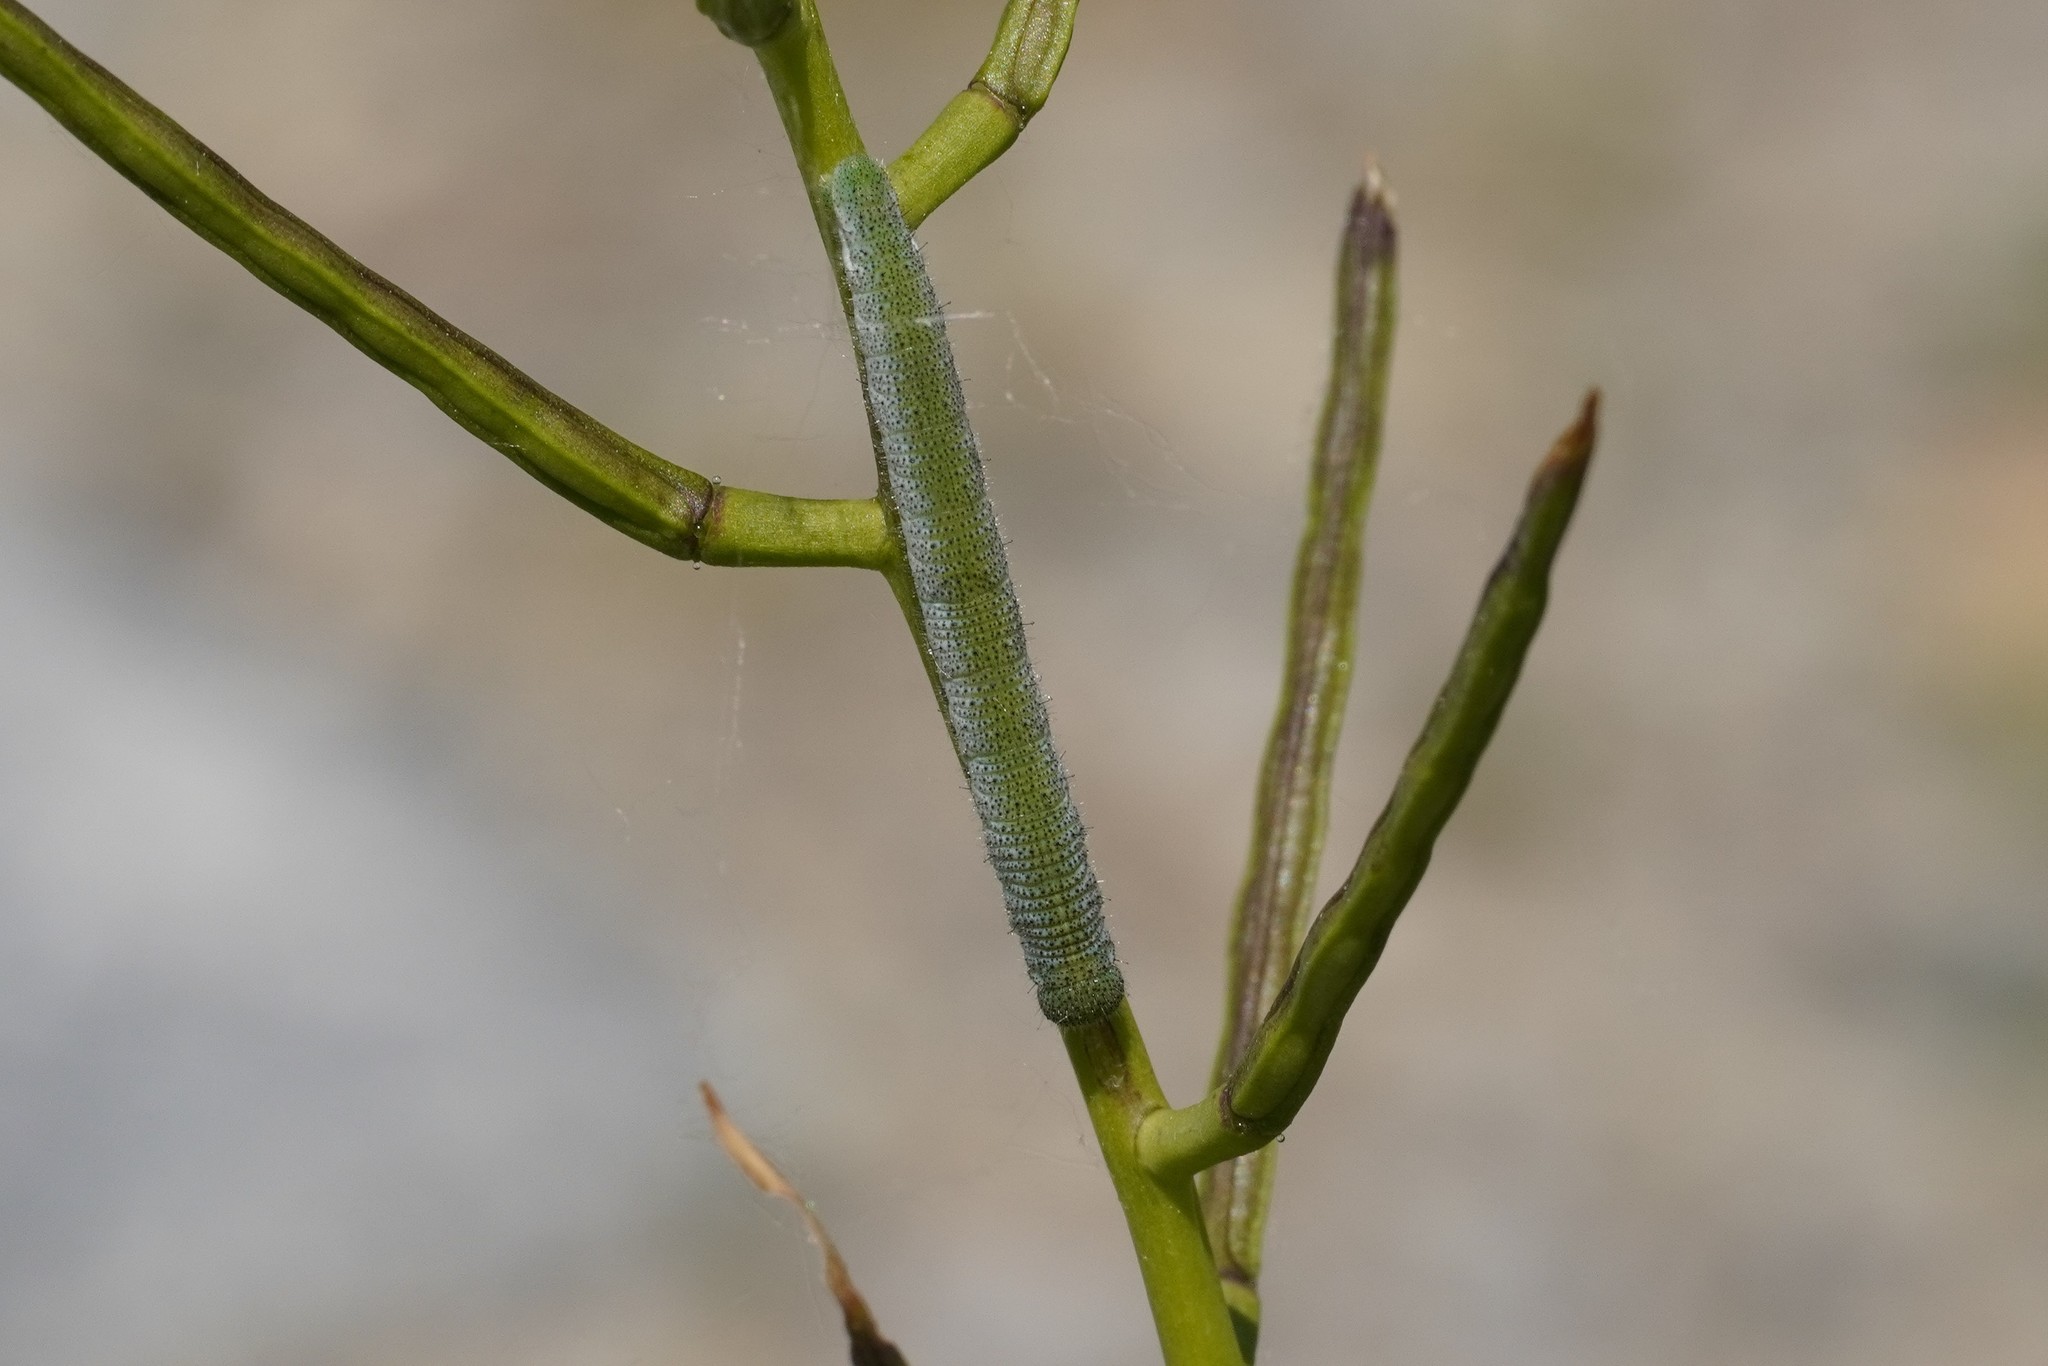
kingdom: Animalia
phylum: Arthropoda
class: Insecta
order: Lepidoptera
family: Pieridae
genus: Anthocharis
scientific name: Anthocharis cardamines
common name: Orange-tip
